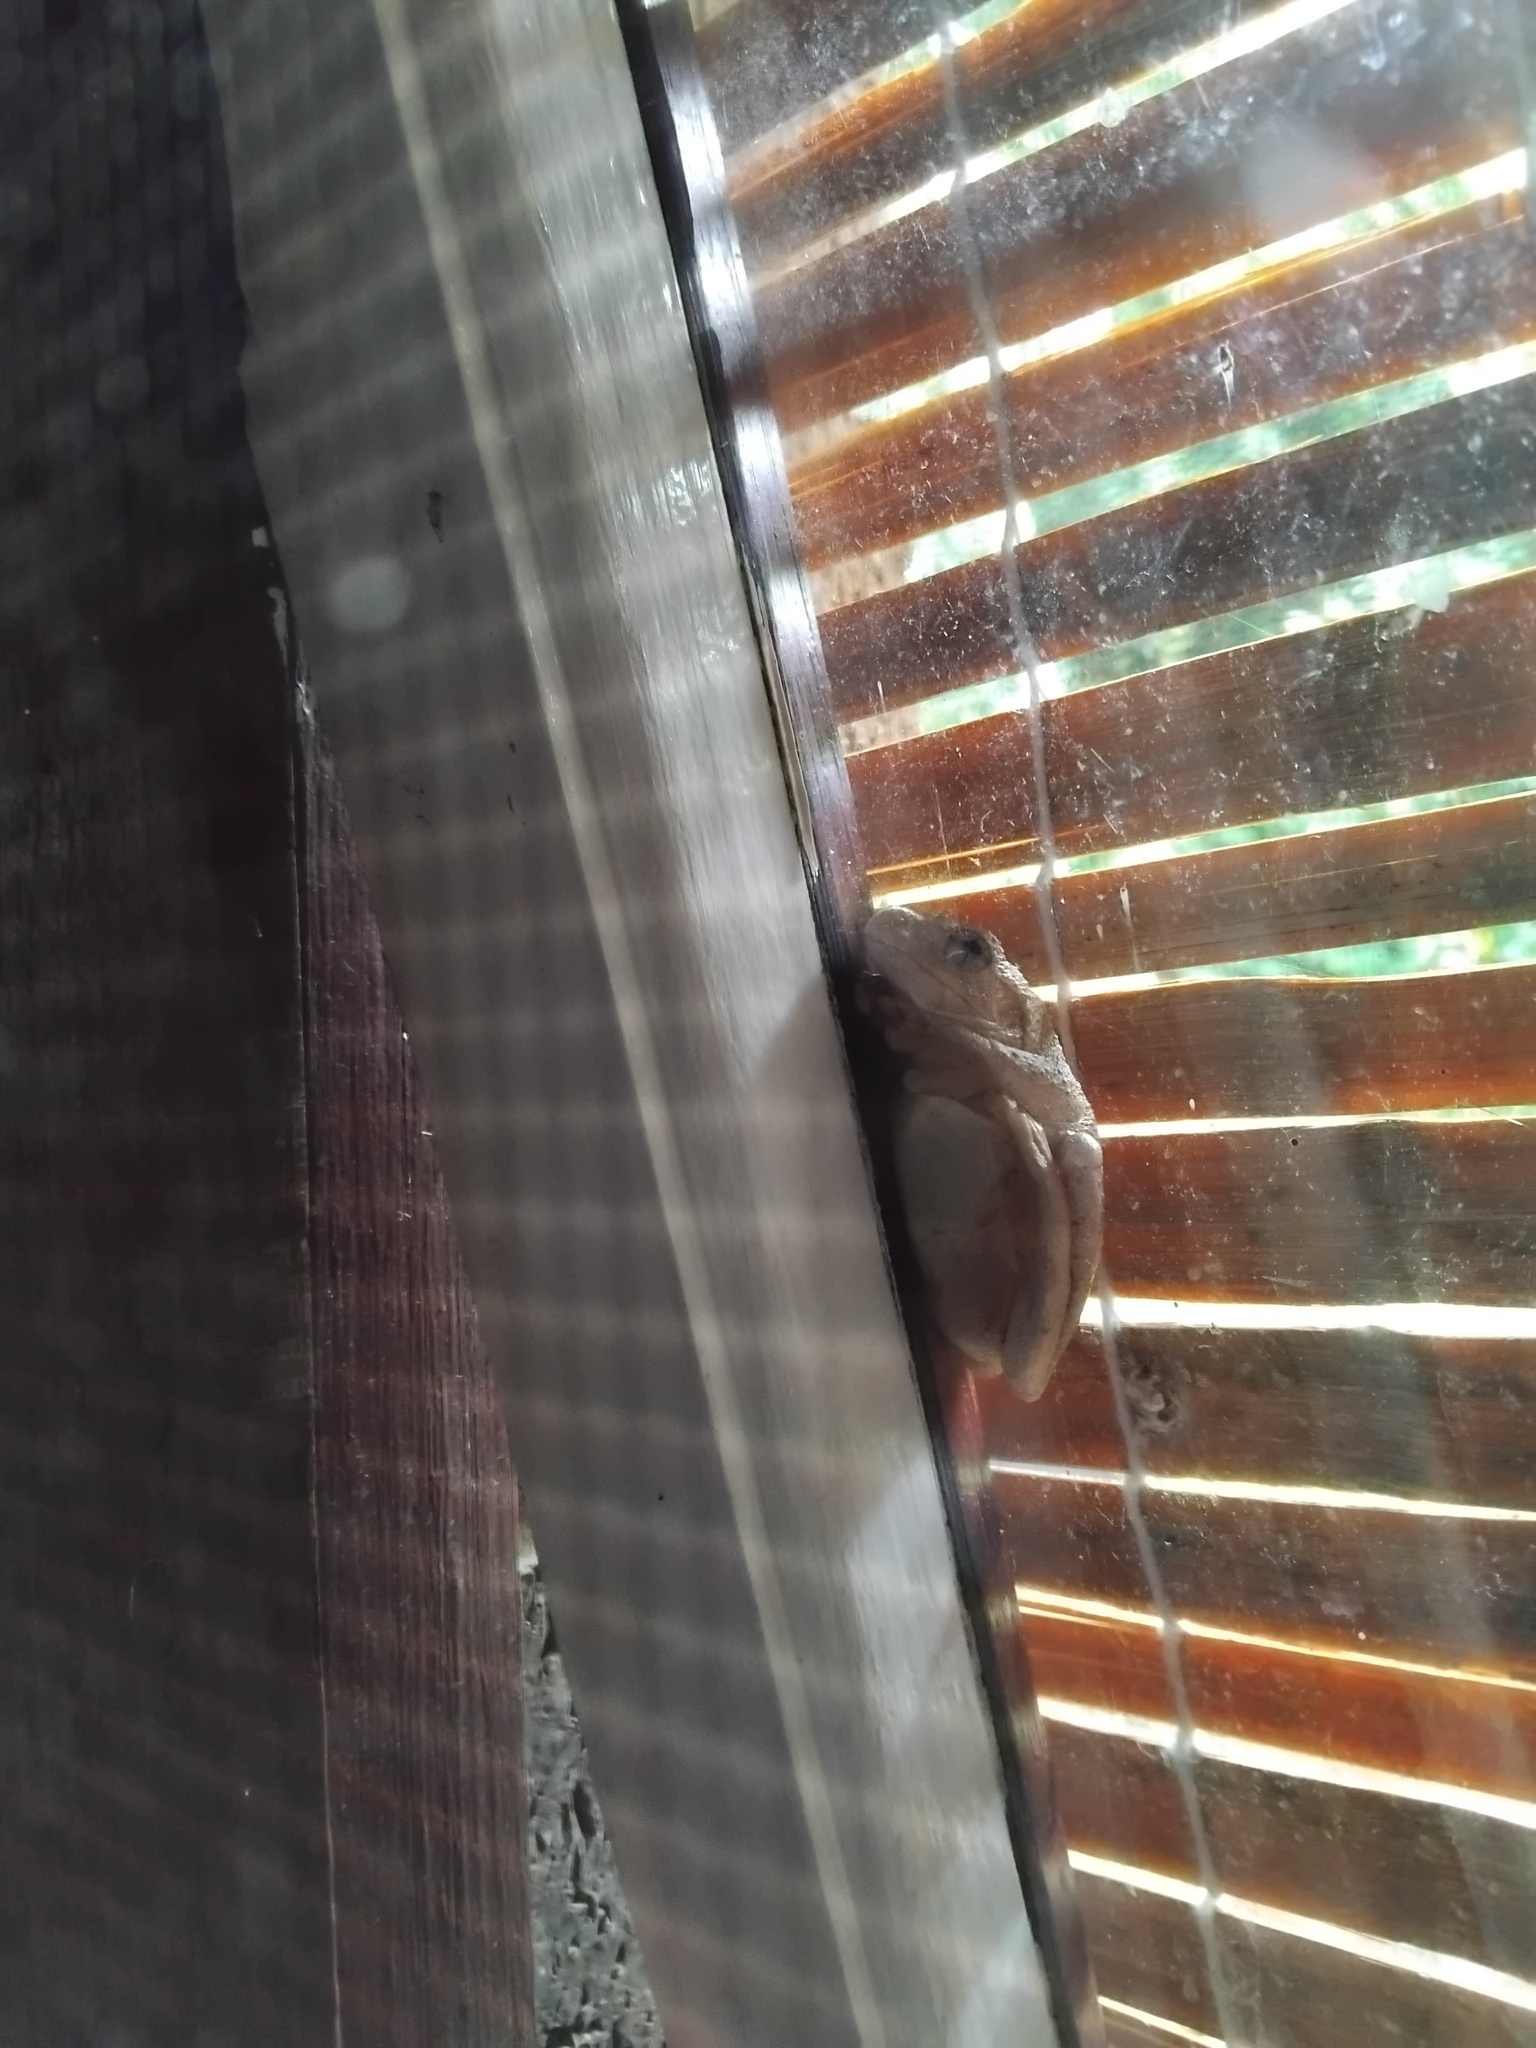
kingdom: Animalia
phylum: Chordata
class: Amphibia
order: Anura
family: Pelodryadidae
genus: Litoria
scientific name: Litoria peronii
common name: Emerald spotted treefrog
